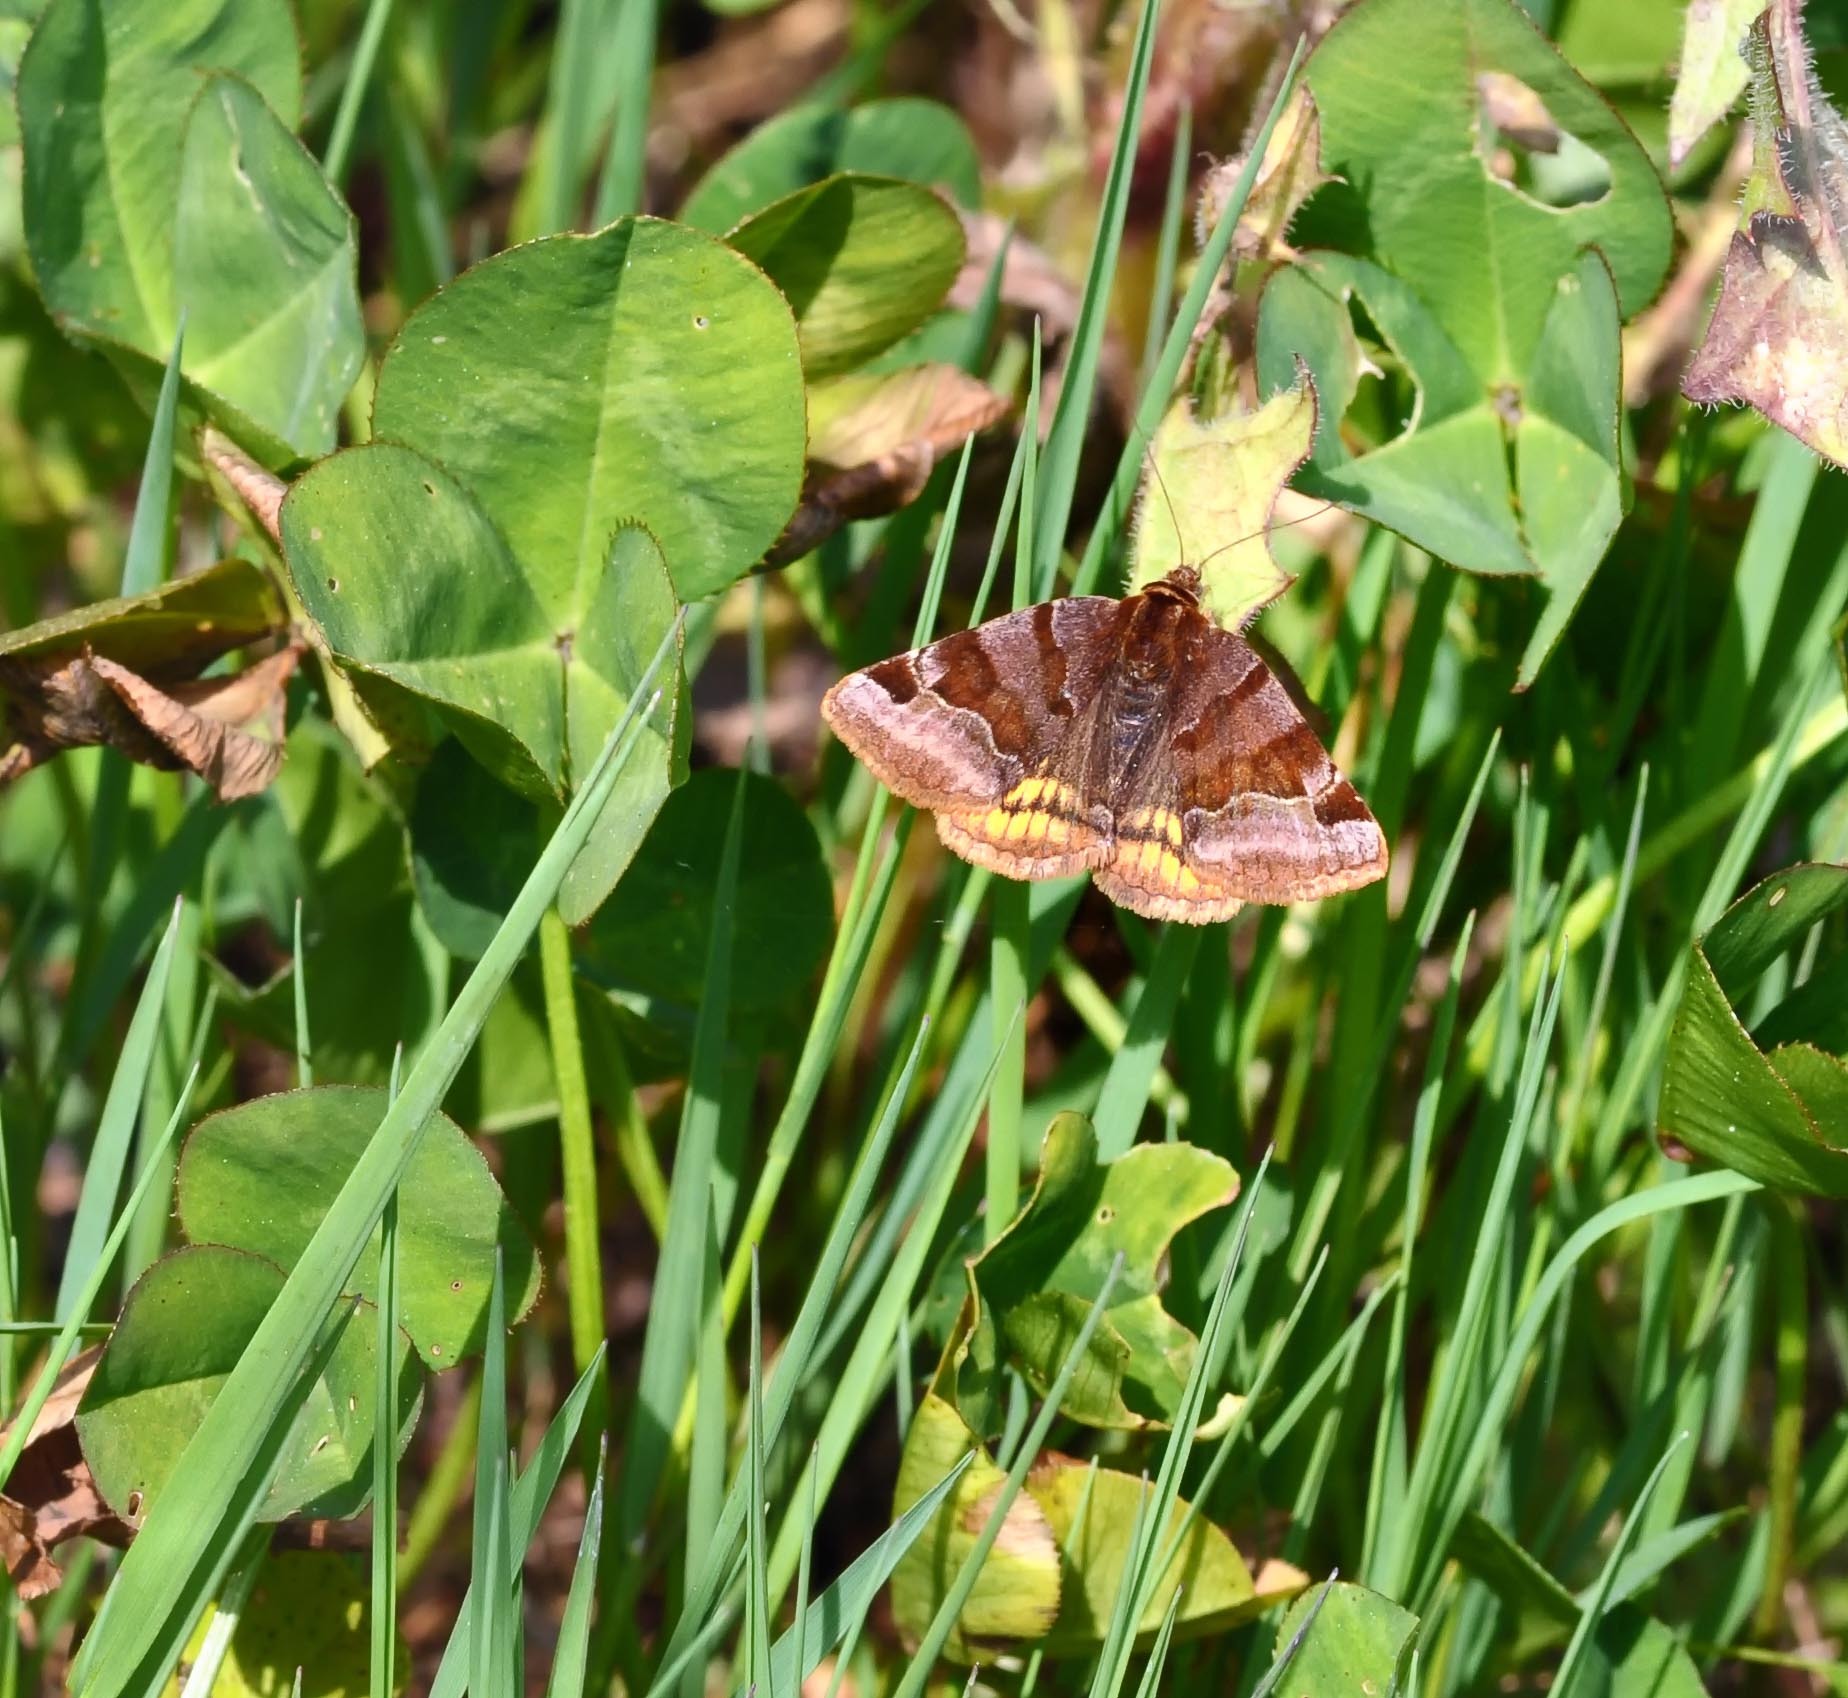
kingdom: Animalia
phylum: Arthropoda
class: Insecta
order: Lepidoptera
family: Erebidae
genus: Euclidia
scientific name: Euclidia glyphica
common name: Burnet companion
